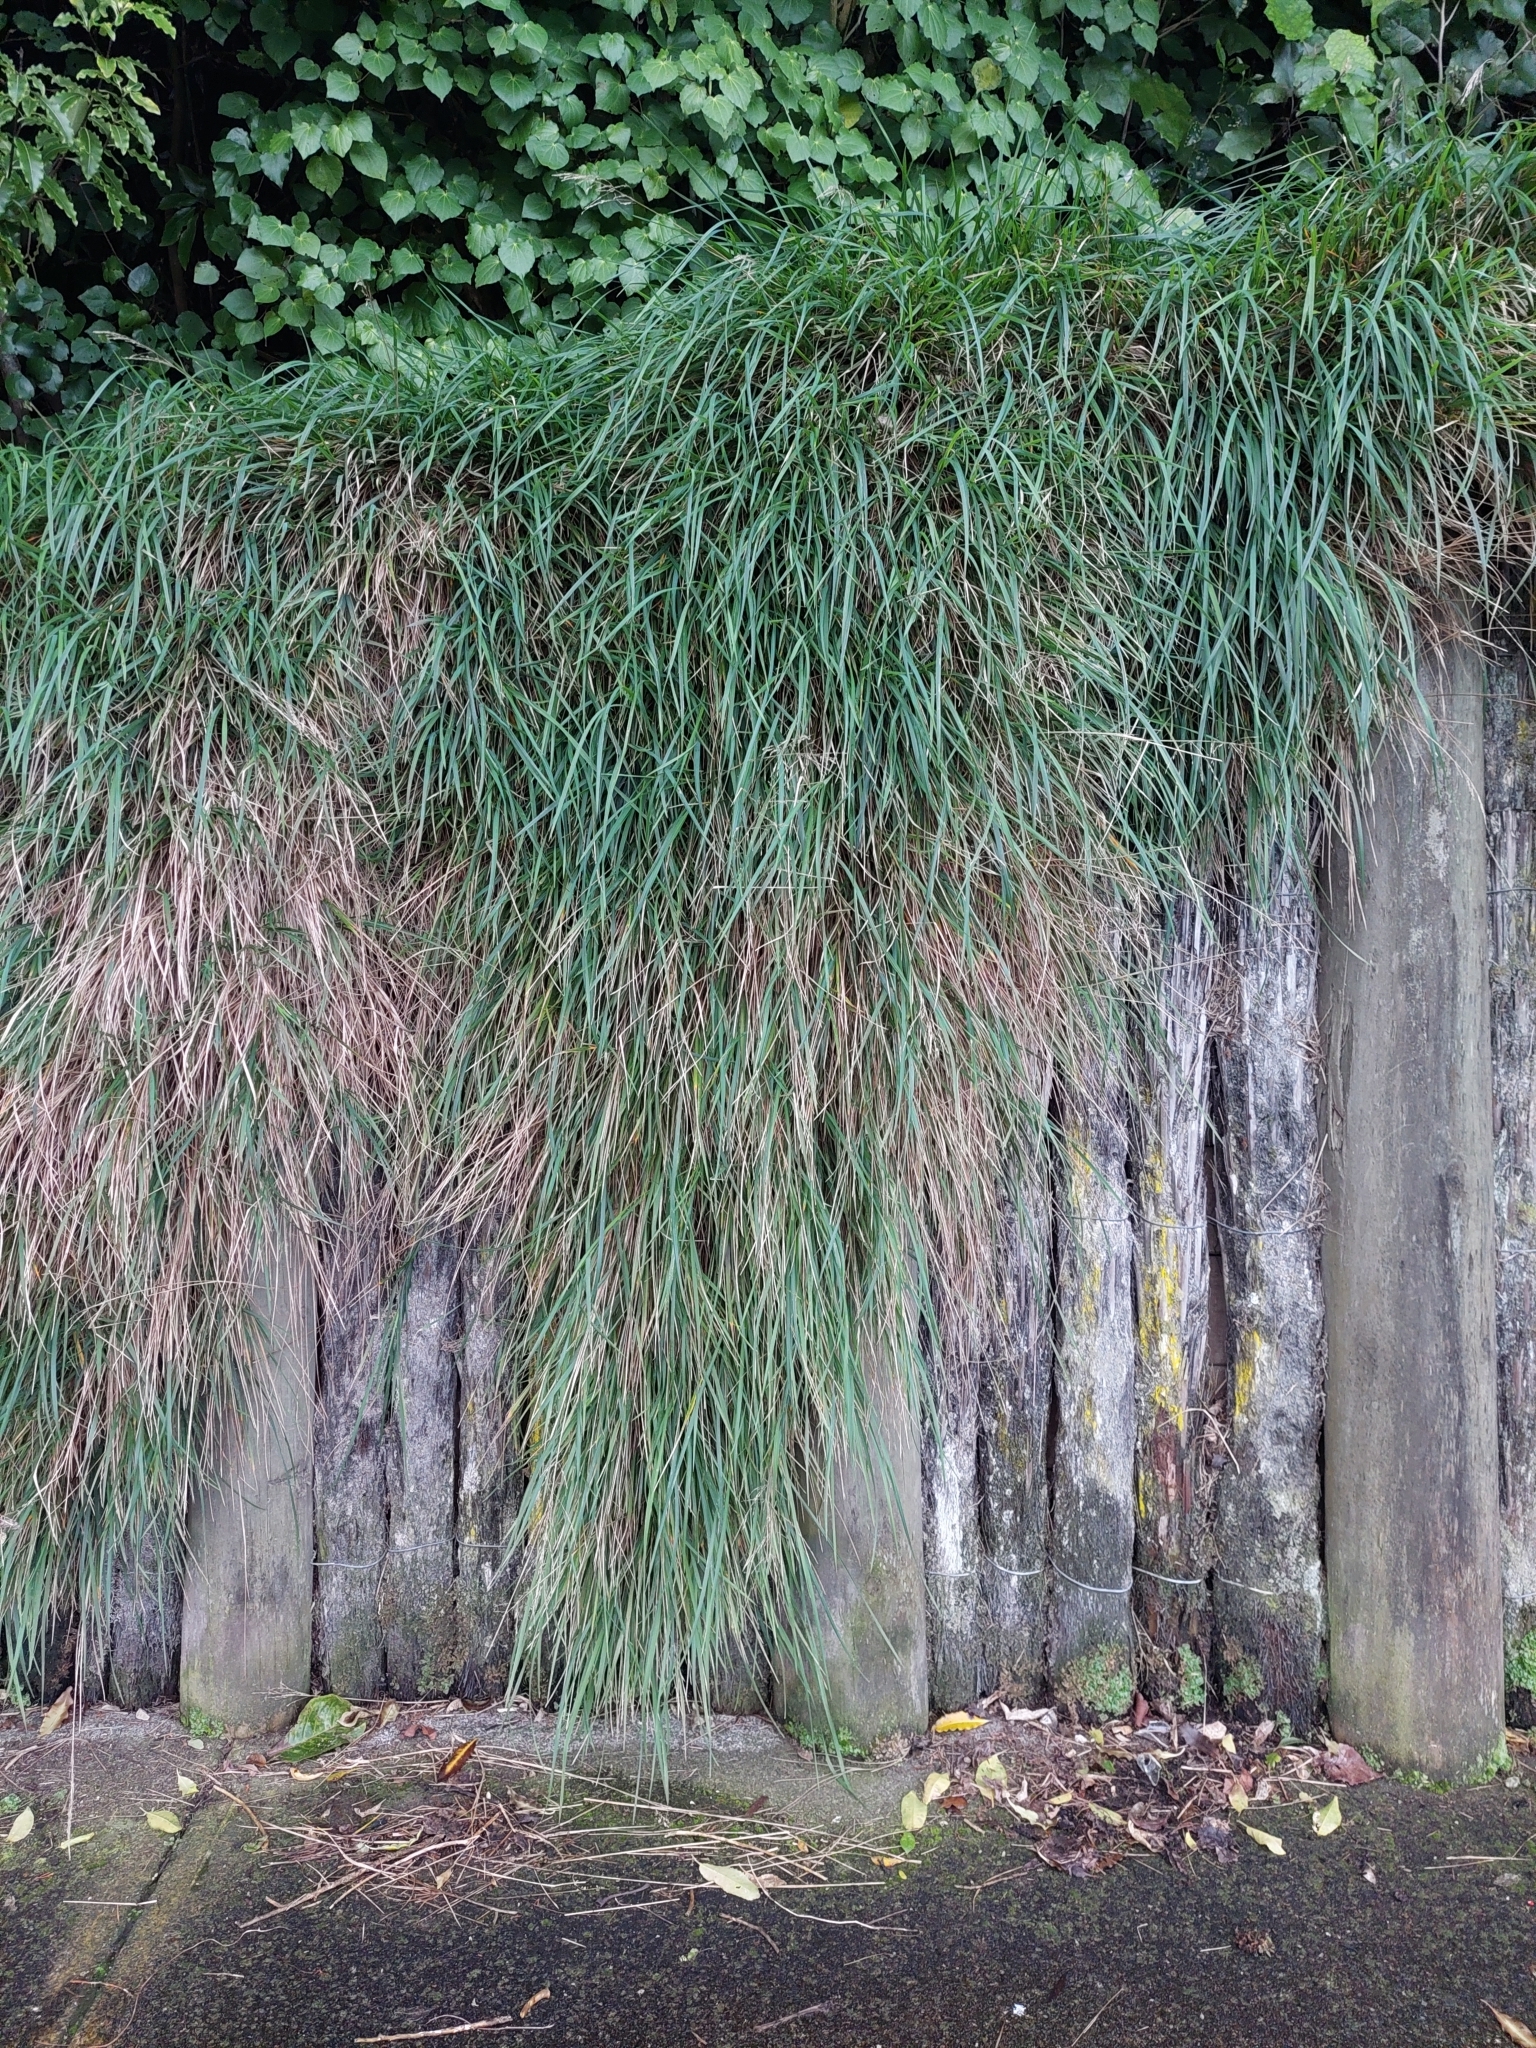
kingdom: Plantae
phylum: Tracheophyta
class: Liliopsida
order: Poales
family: Poaceae
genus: Poa
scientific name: Poa anceps
